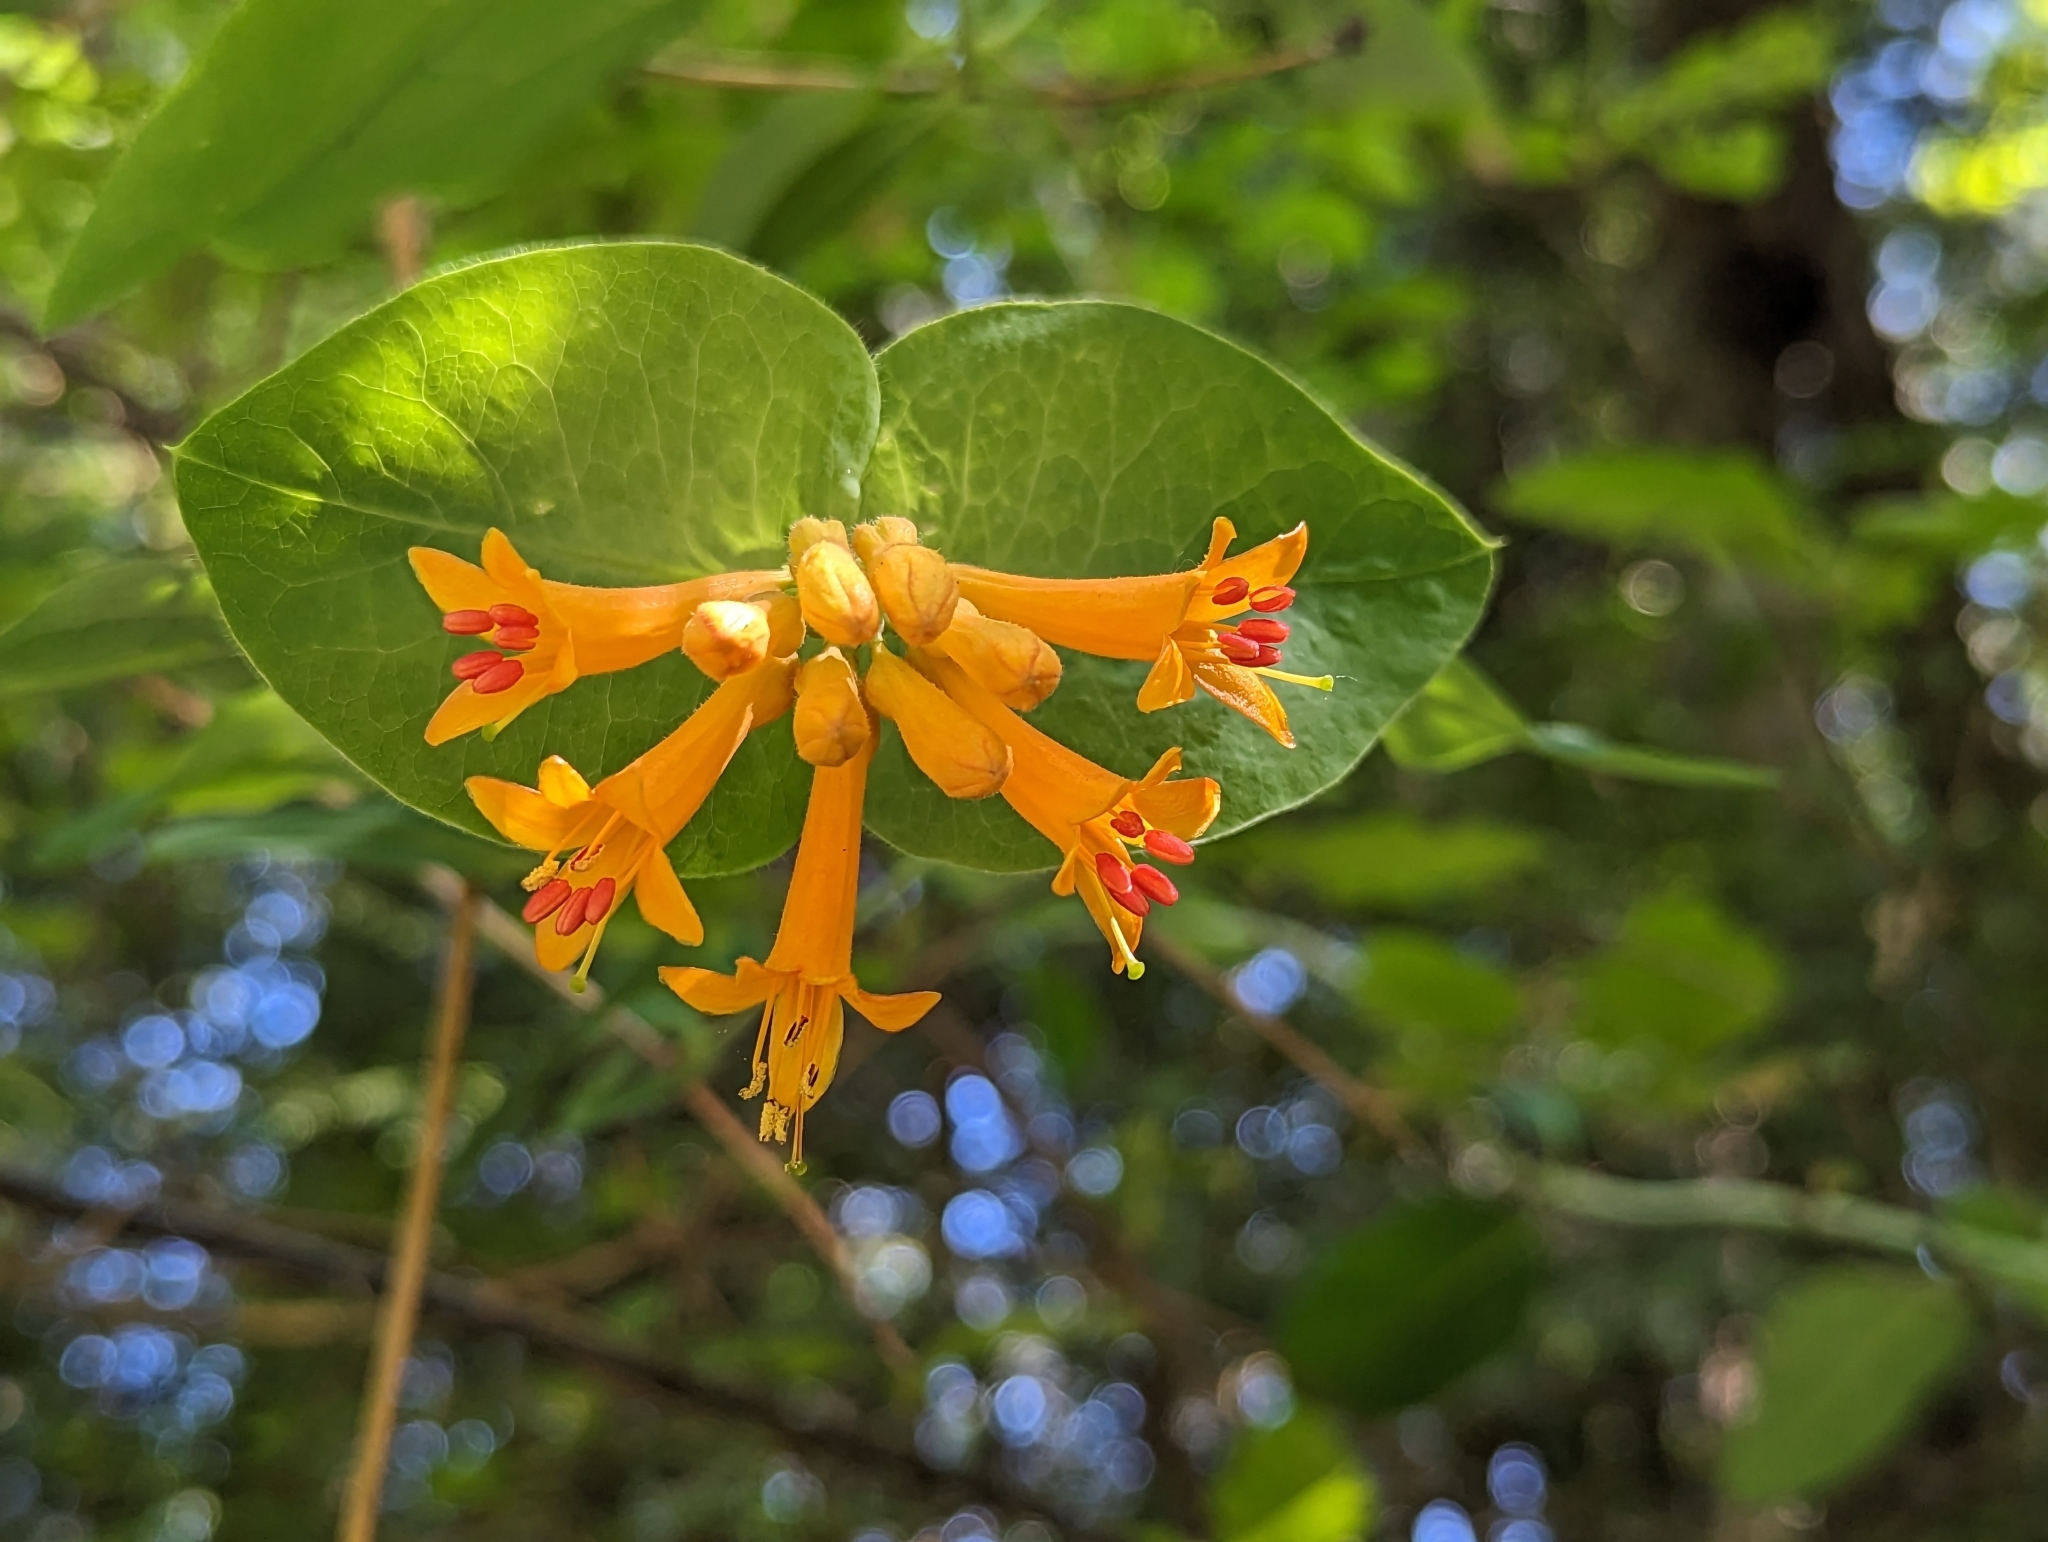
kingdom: Plantae
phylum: Tracheophyta
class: Magnoliopsida
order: Dipsacales
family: Caprifoliaceae
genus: Lonicera
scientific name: Lonicera ciliosa
